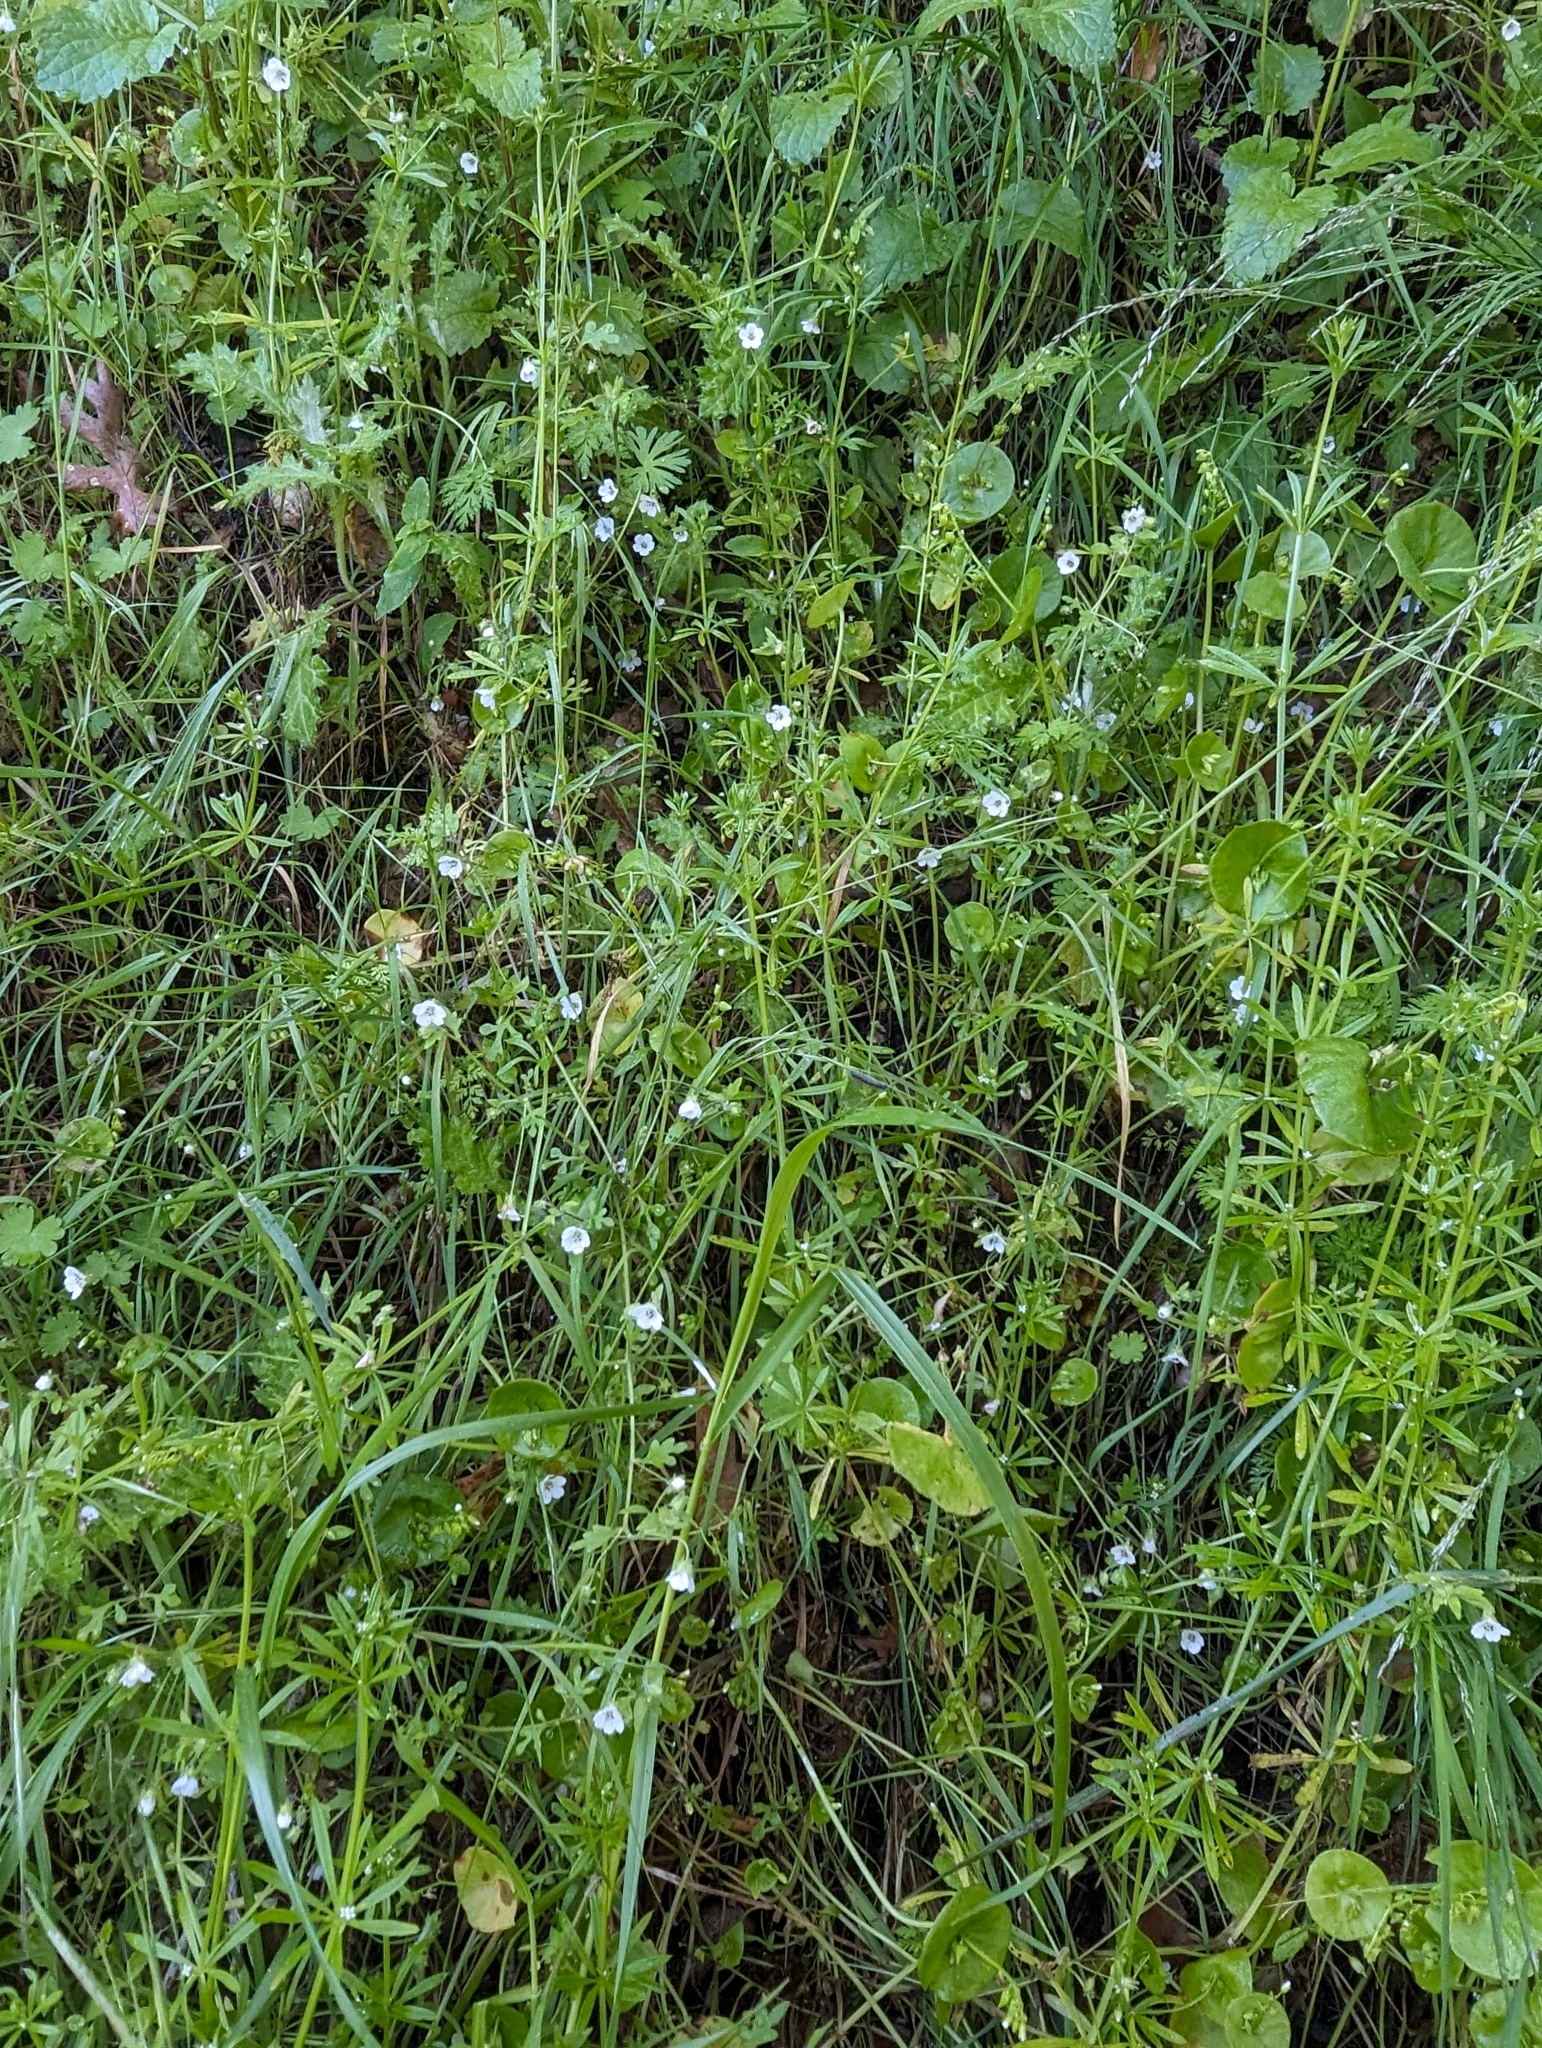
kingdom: Plantae
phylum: Tracheophyta
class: Magnoliopsida
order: Boraginales
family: Hydrophyllaceae
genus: Nemophila
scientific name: Nemophila heterophylla
